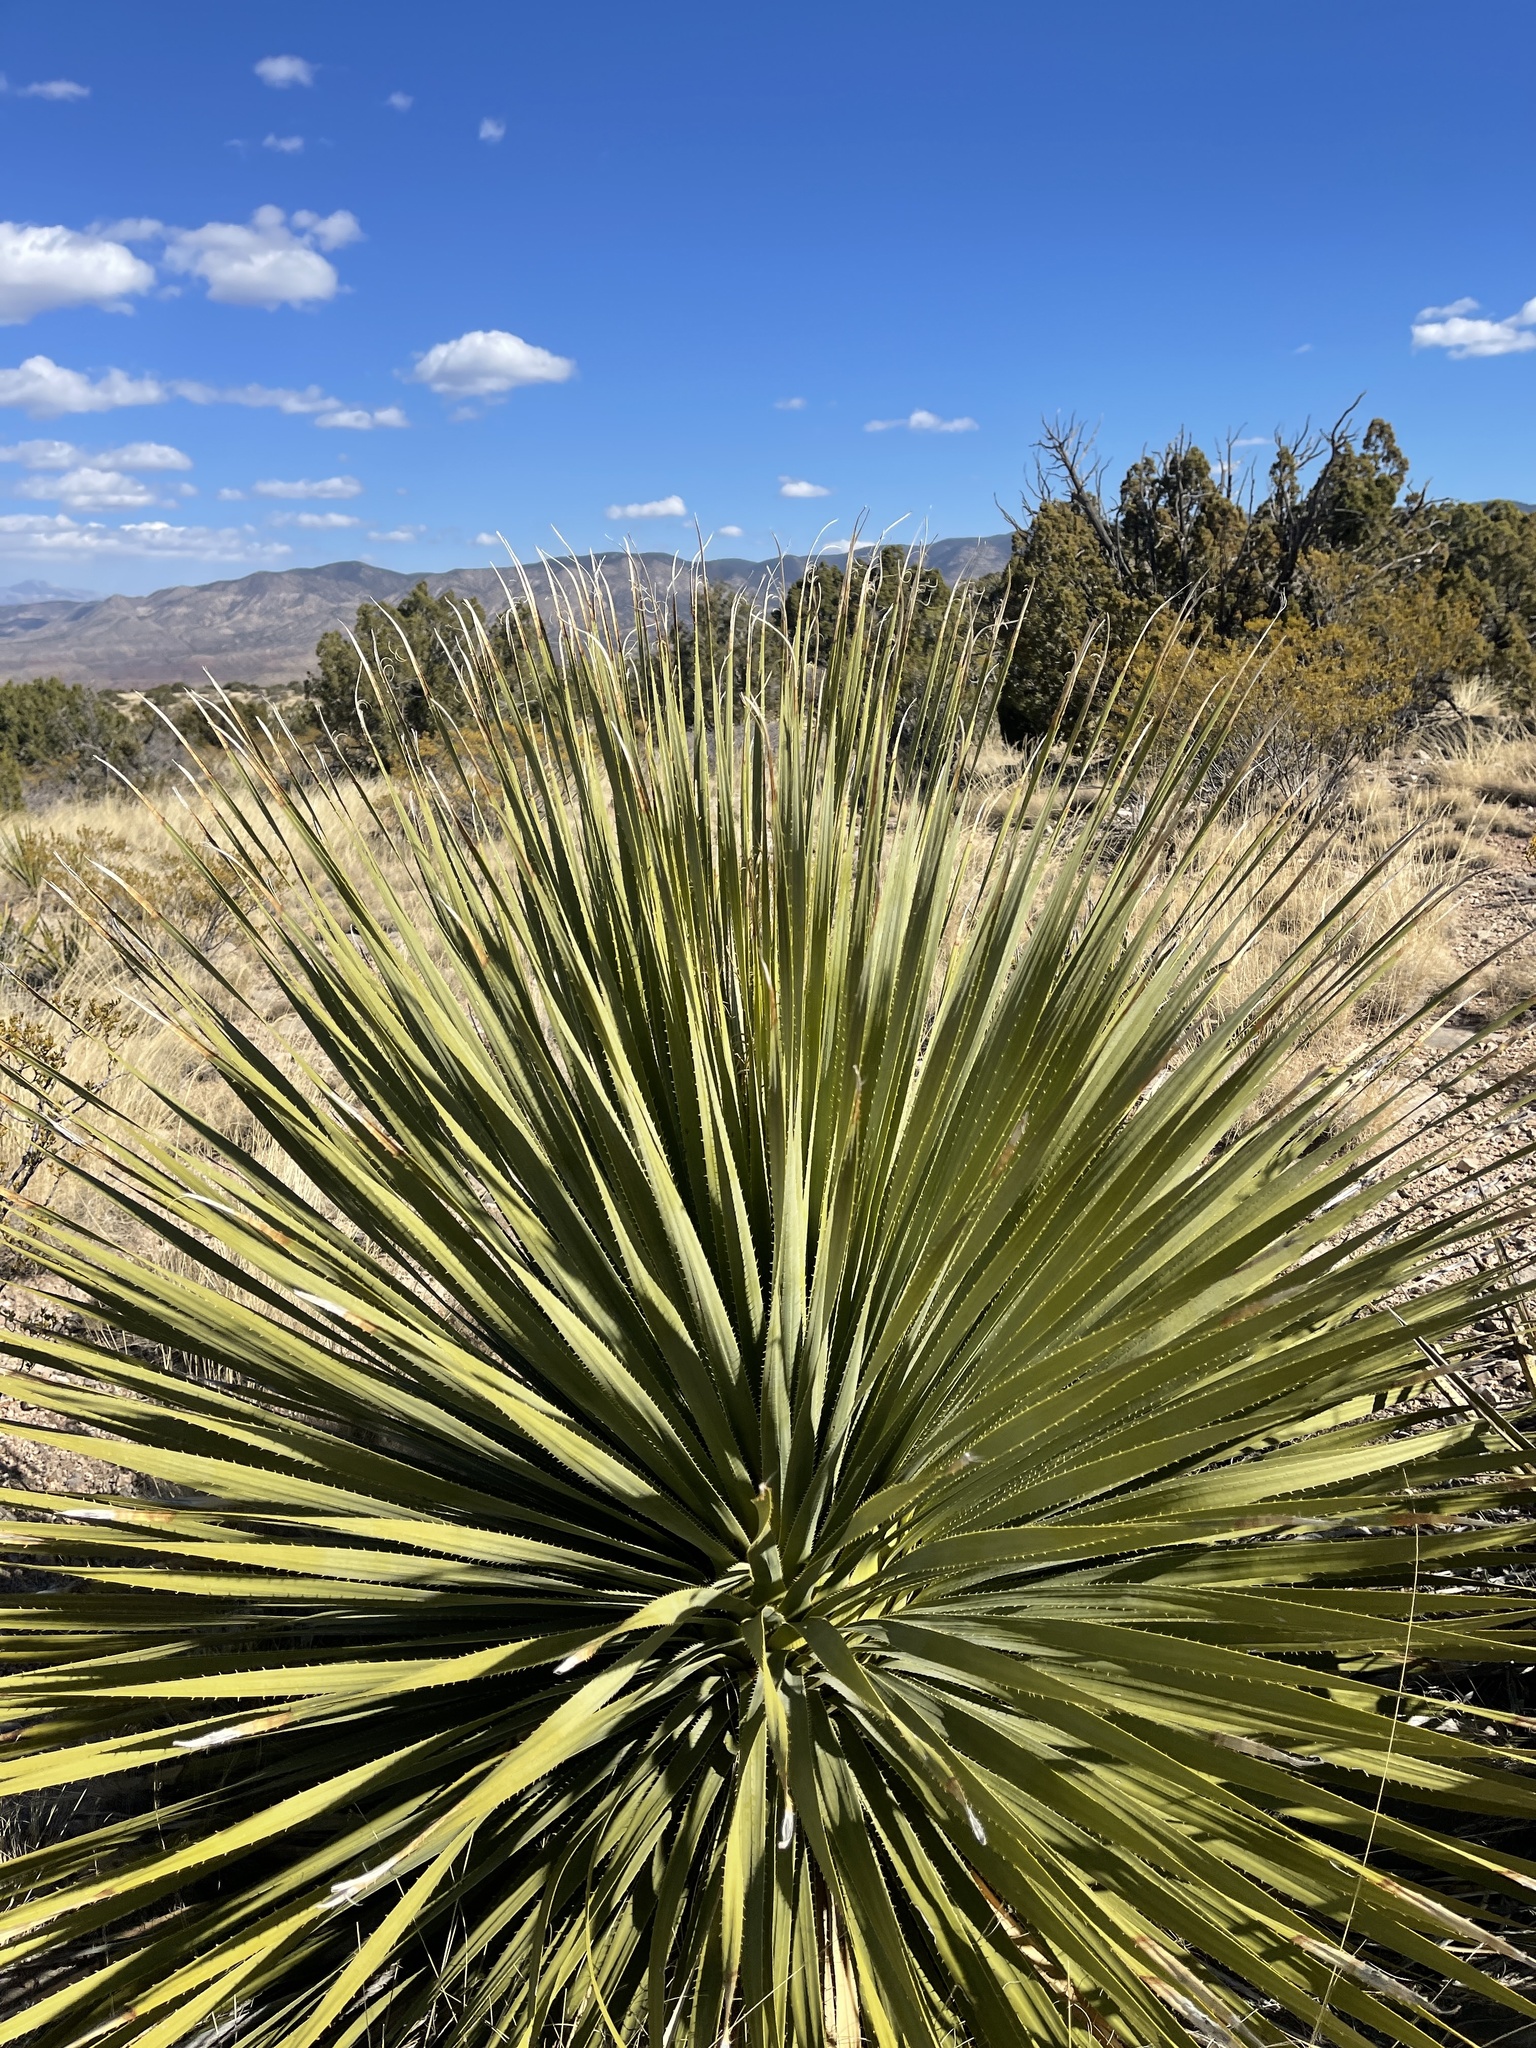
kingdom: Plantae
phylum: Tracheophyta
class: Liliopsida
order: Asparagales
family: Asparagaceae
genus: Dasylirion
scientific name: Dasylirion wheeleri
